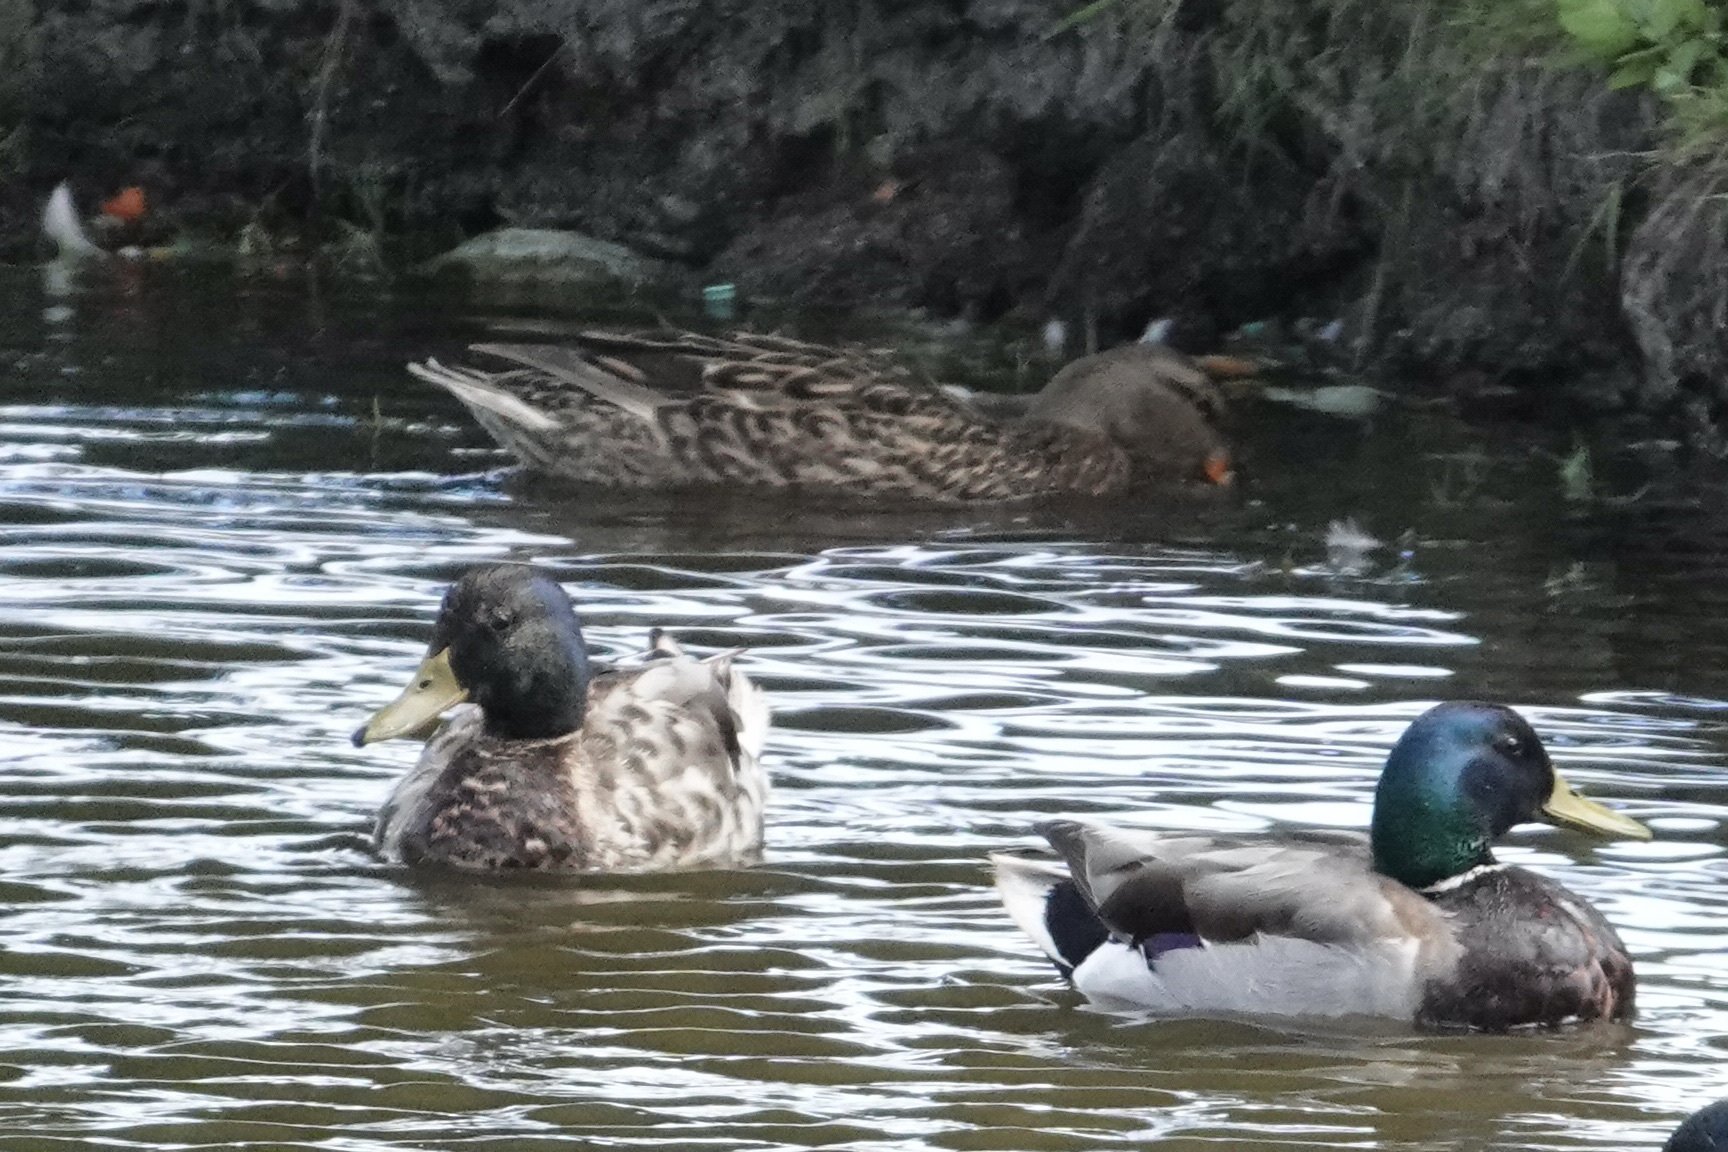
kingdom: Animalia
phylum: Chordata
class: Aves
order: Anseriformes
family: Anatidae
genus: Anas
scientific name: Anas platyrhynchos
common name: Mallard
